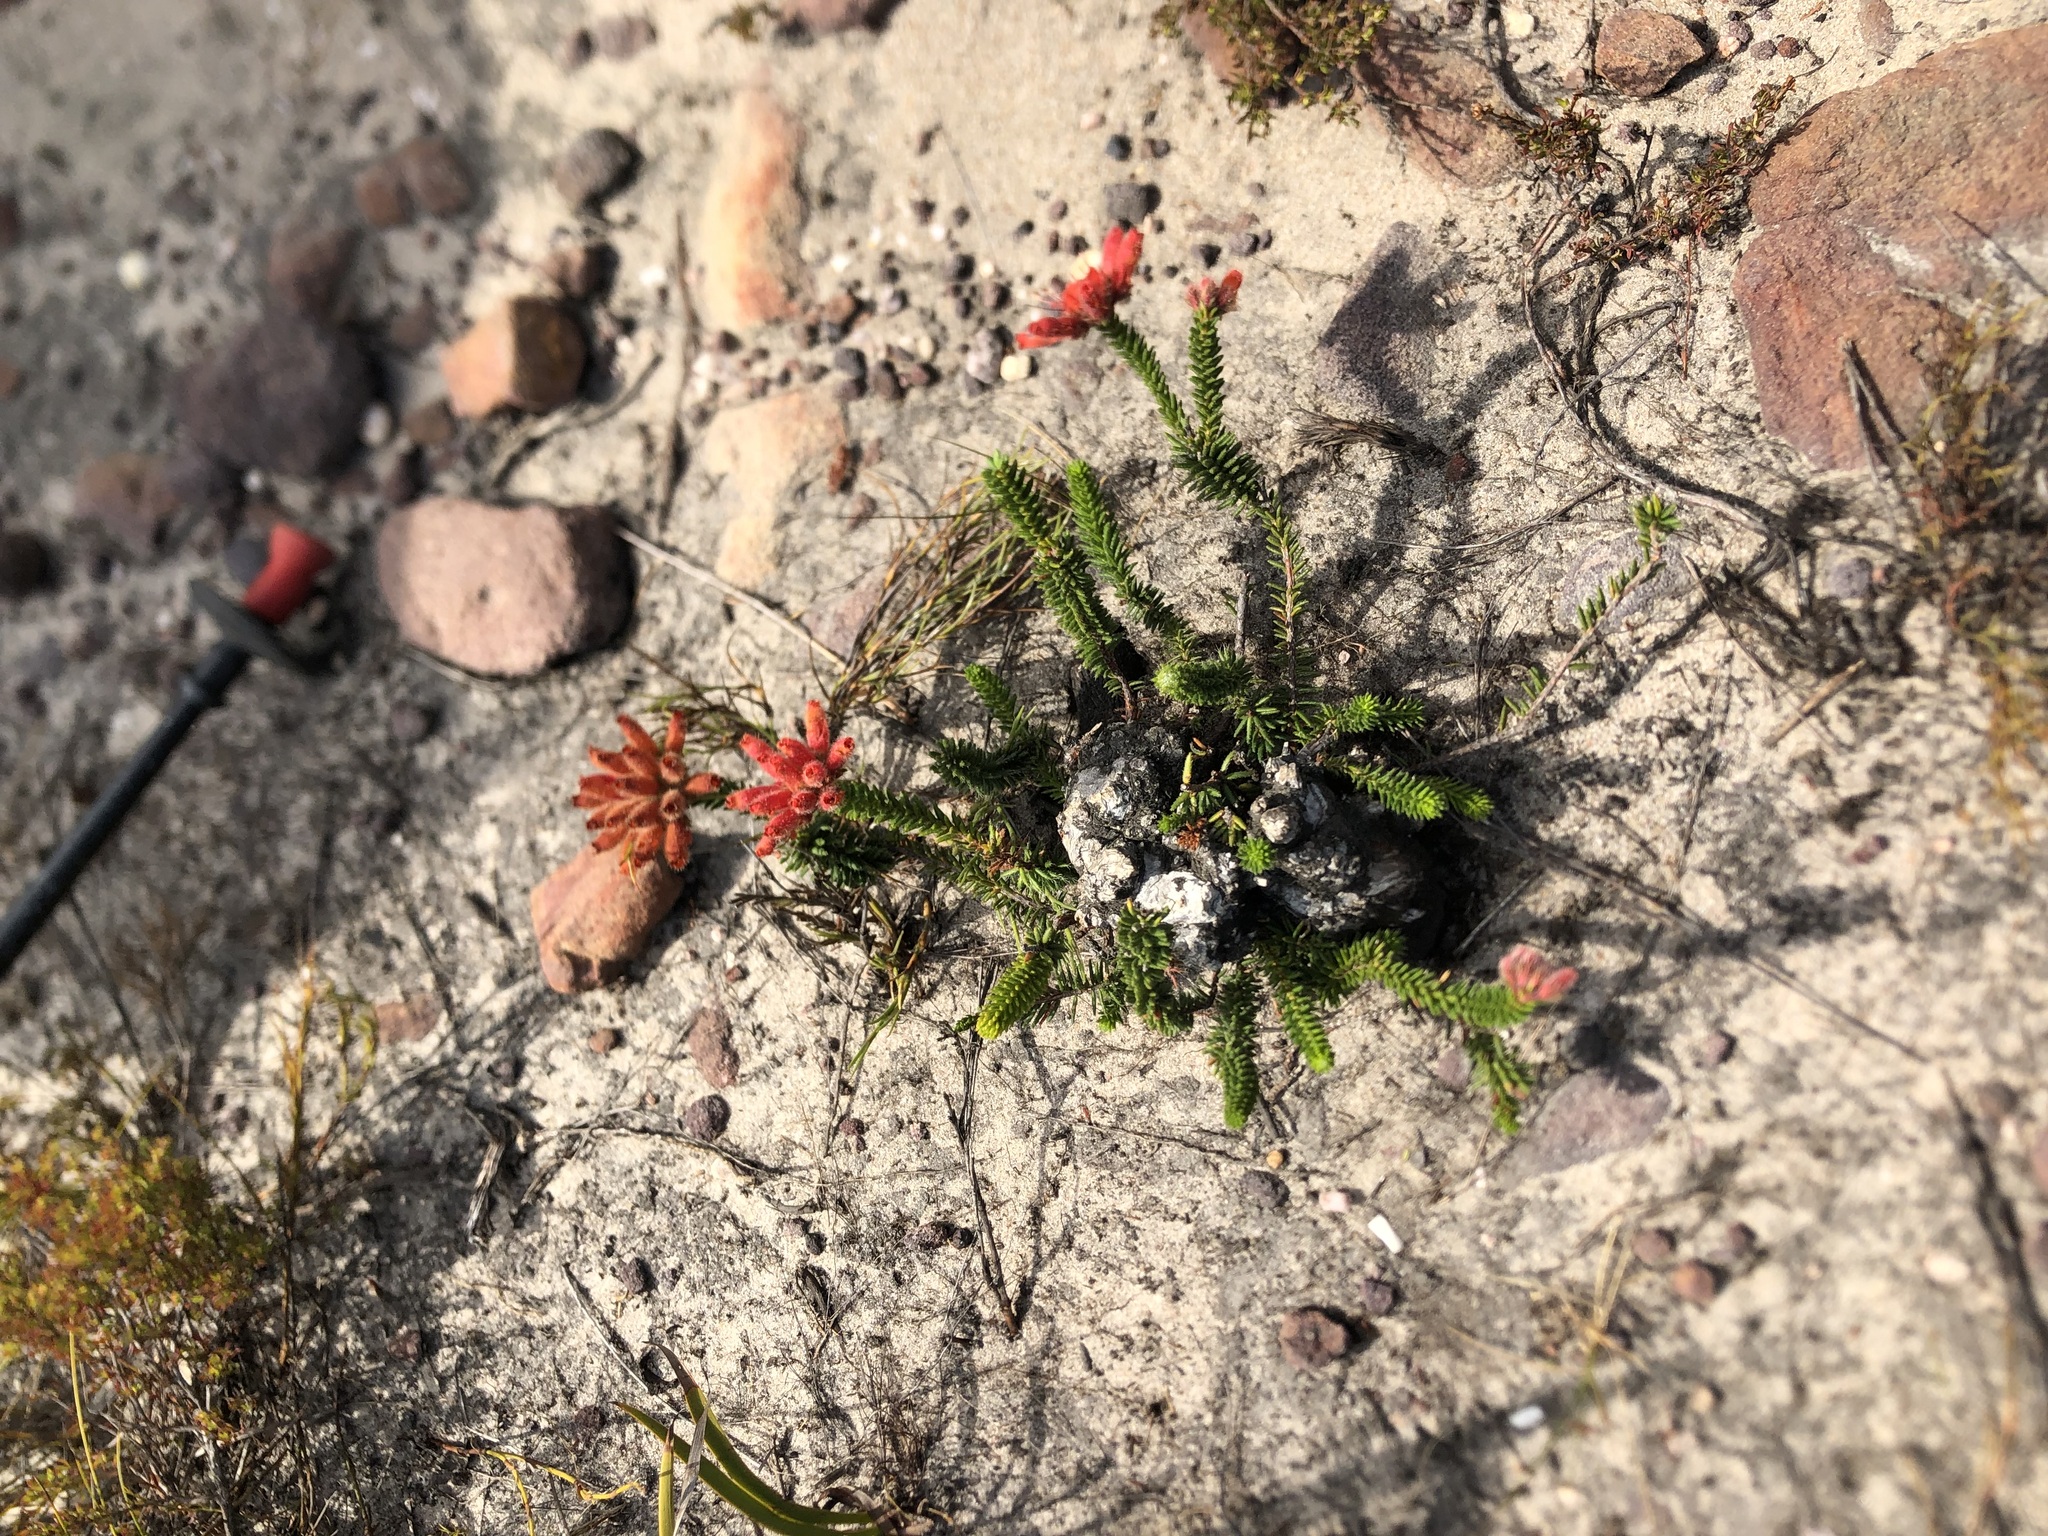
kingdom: Plantae
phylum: Tracheophyta
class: Magnoliopsida
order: Ericales
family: Ericaceae
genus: Erica
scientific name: Erica cerinthoides
